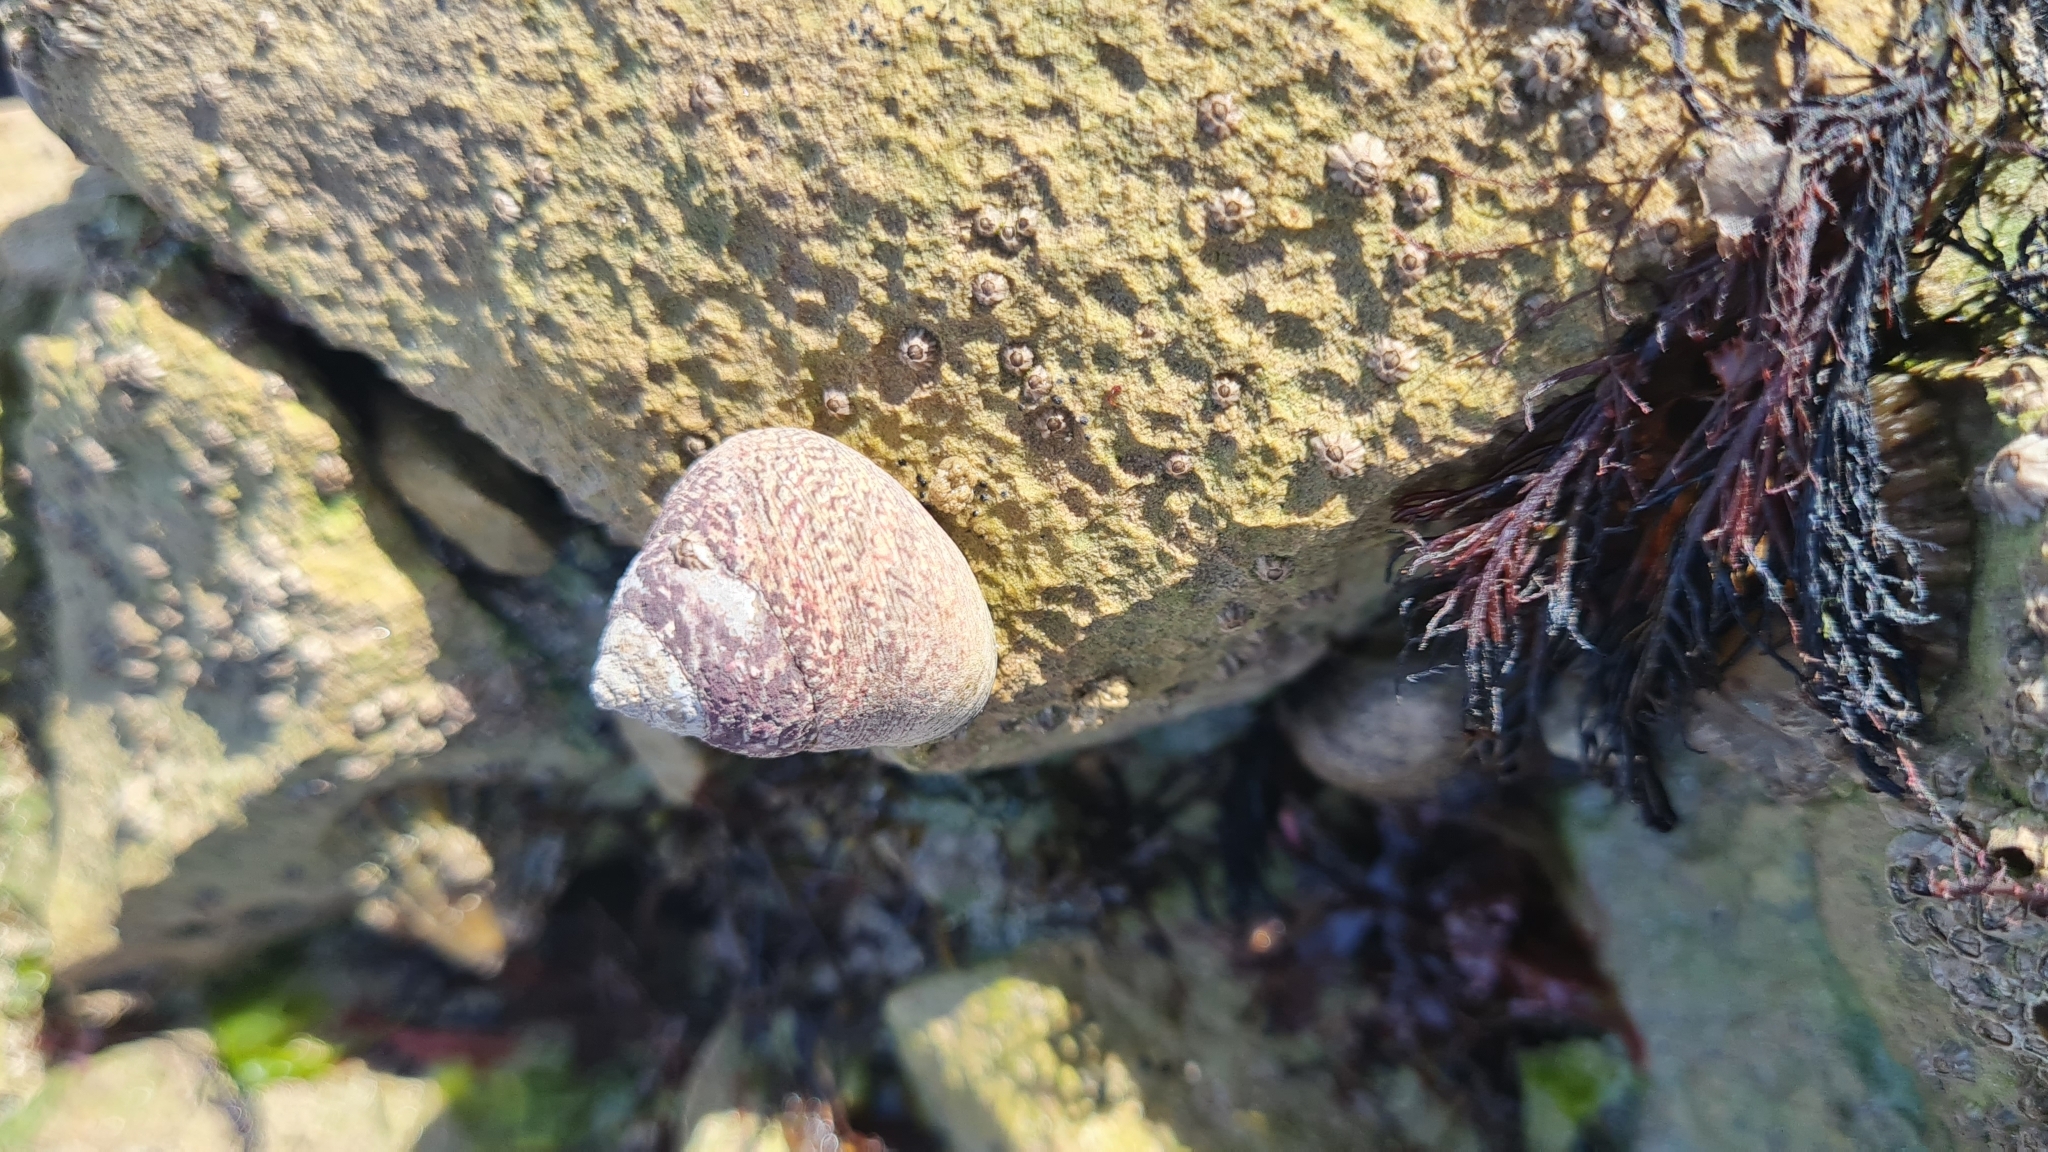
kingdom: Animalia
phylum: Mollusca
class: Gastropoda
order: Trochida
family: Trochidae
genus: Phorcus
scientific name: Phorcus lineatus
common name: Toothed top shell
